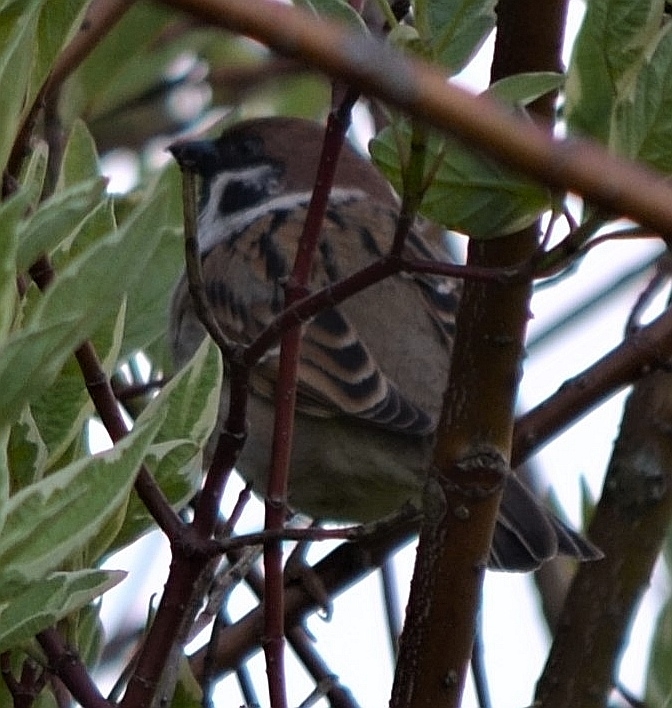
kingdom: Animalia
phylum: Chordata
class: Aves
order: Passeriformes
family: Passeridae
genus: Passer
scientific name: Passer montanus
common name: Eurasian tree sparrow
